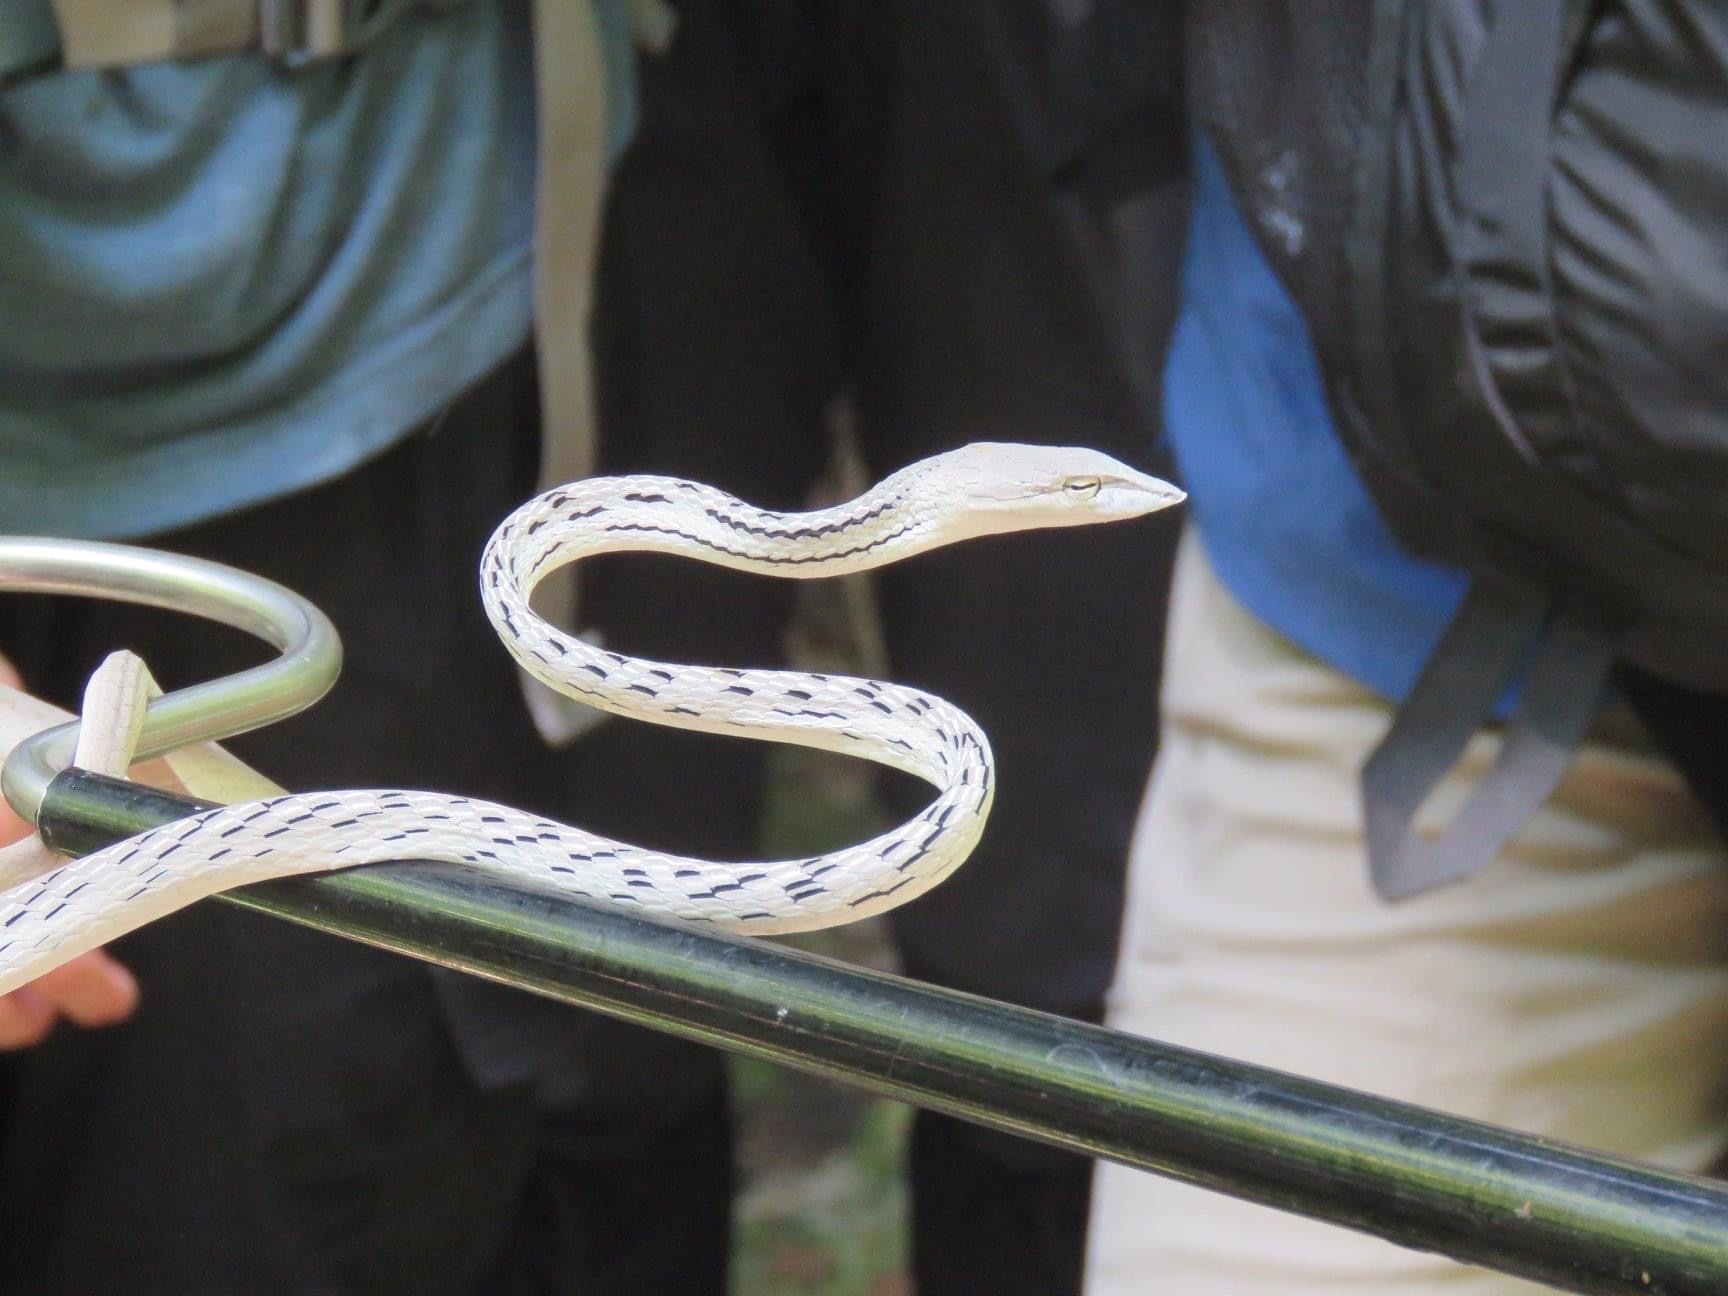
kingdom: Animalia
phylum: Chordata
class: Squamata
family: Colubridae
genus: Ahaetulla
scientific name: Ahaetulla prasina
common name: Oriental whip snake
